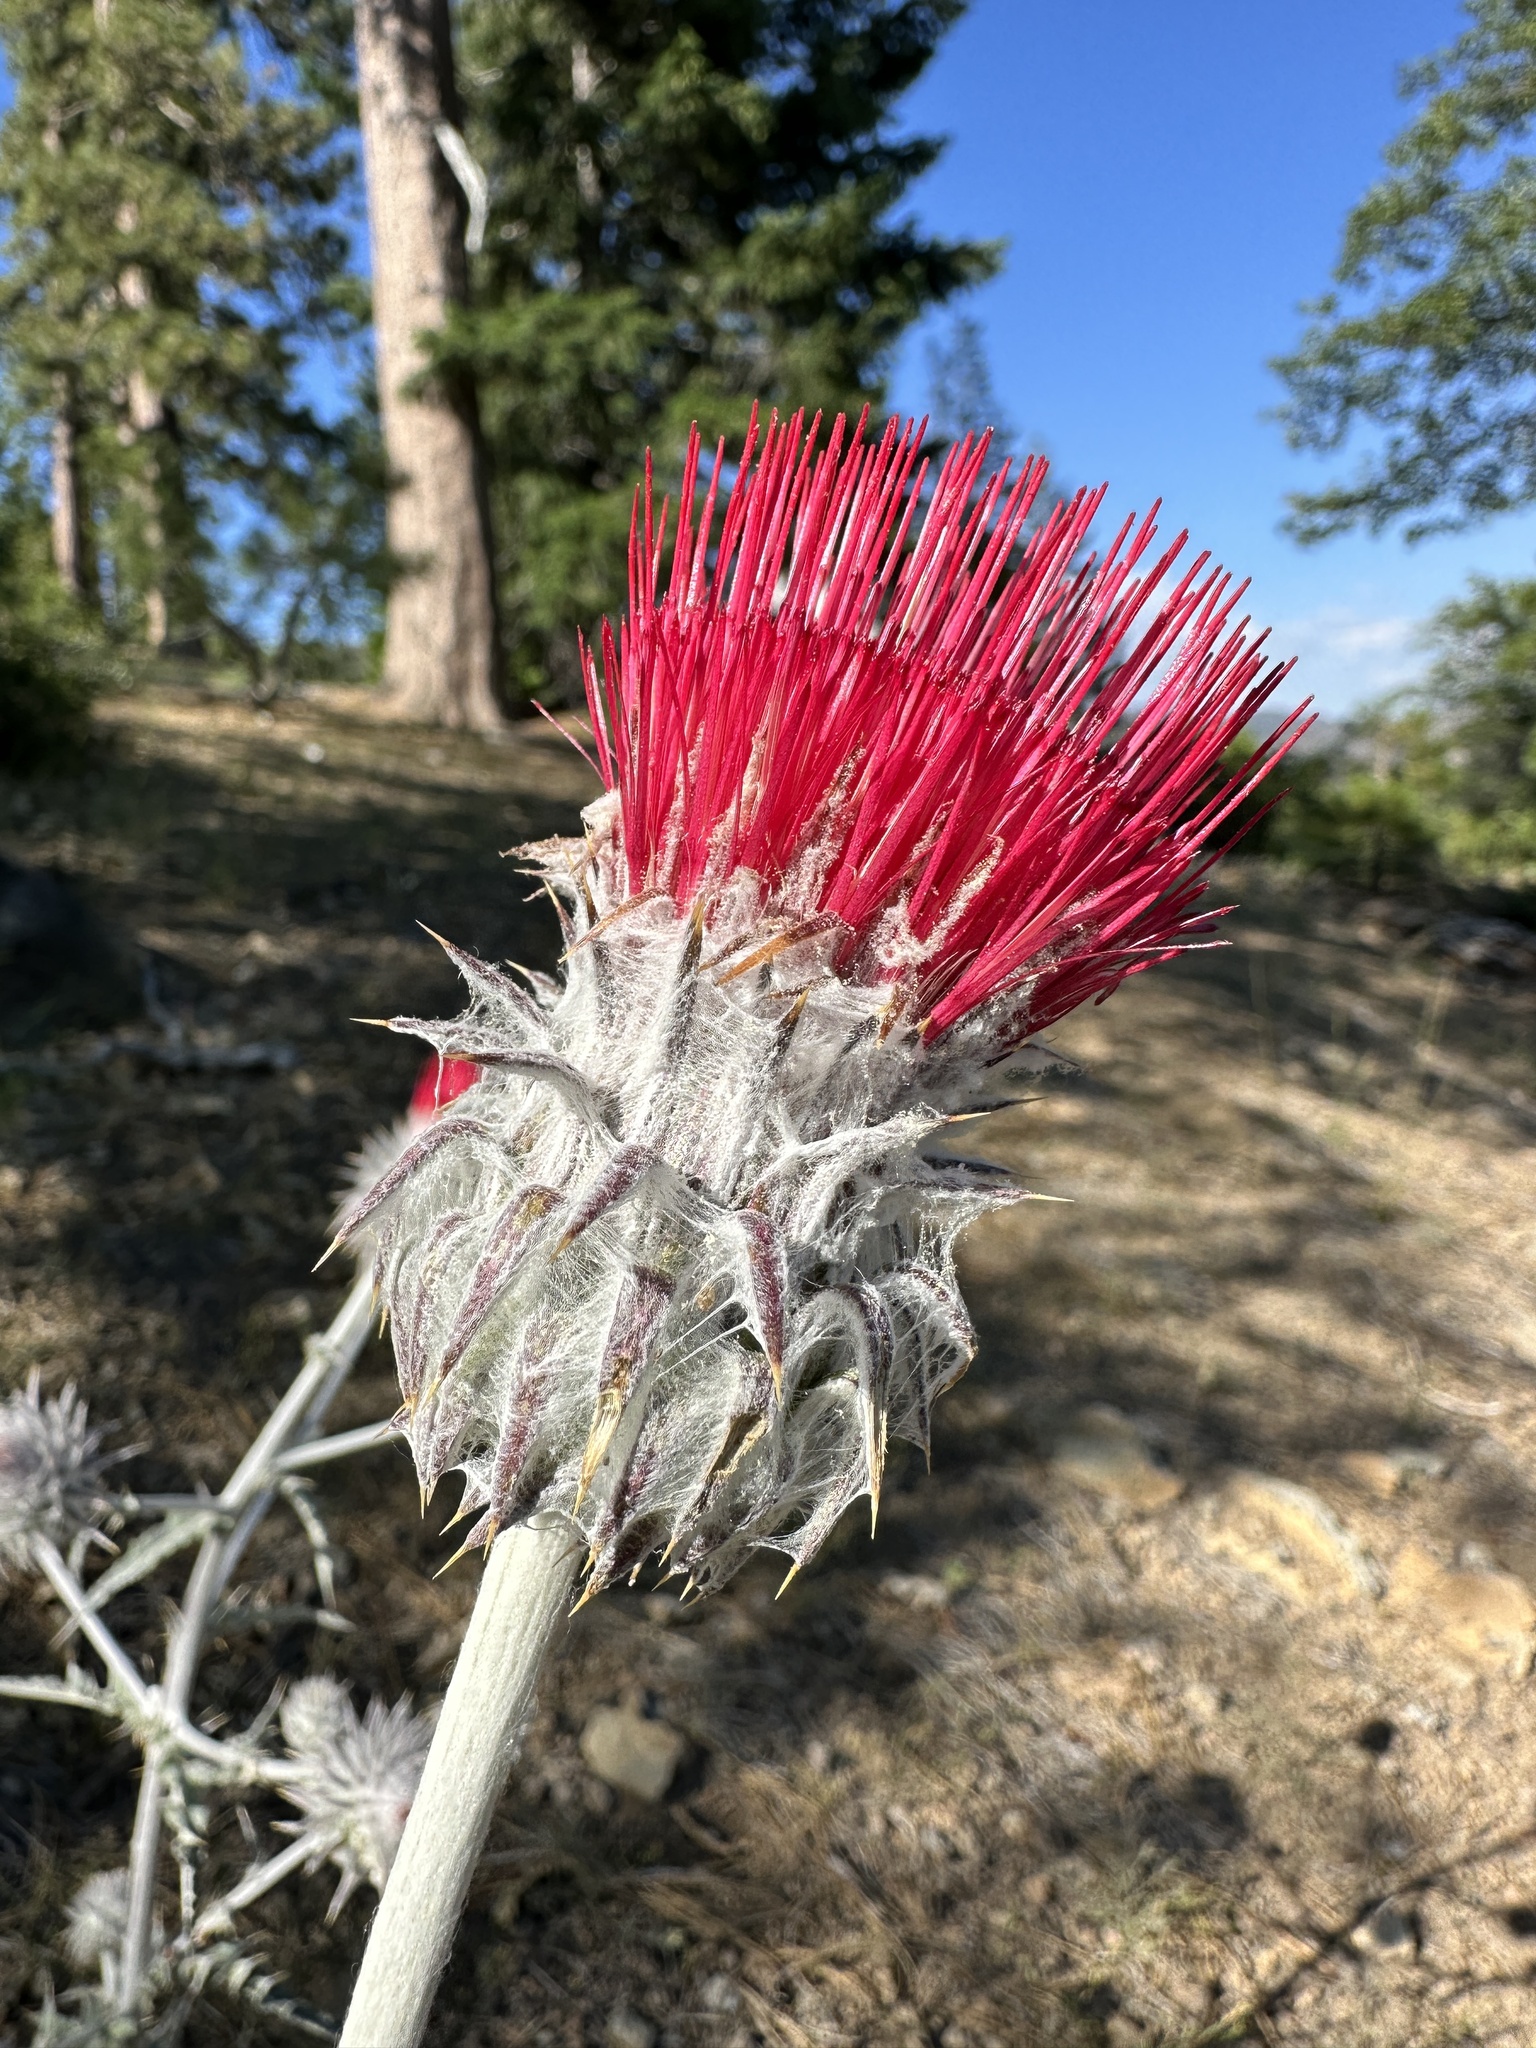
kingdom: Plantae
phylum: Tracheophyta
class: Magnoliopsida
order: Asterales
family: Asteraceae
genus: Cirsium
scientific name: Cirsium occidentale
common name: Western thistle
